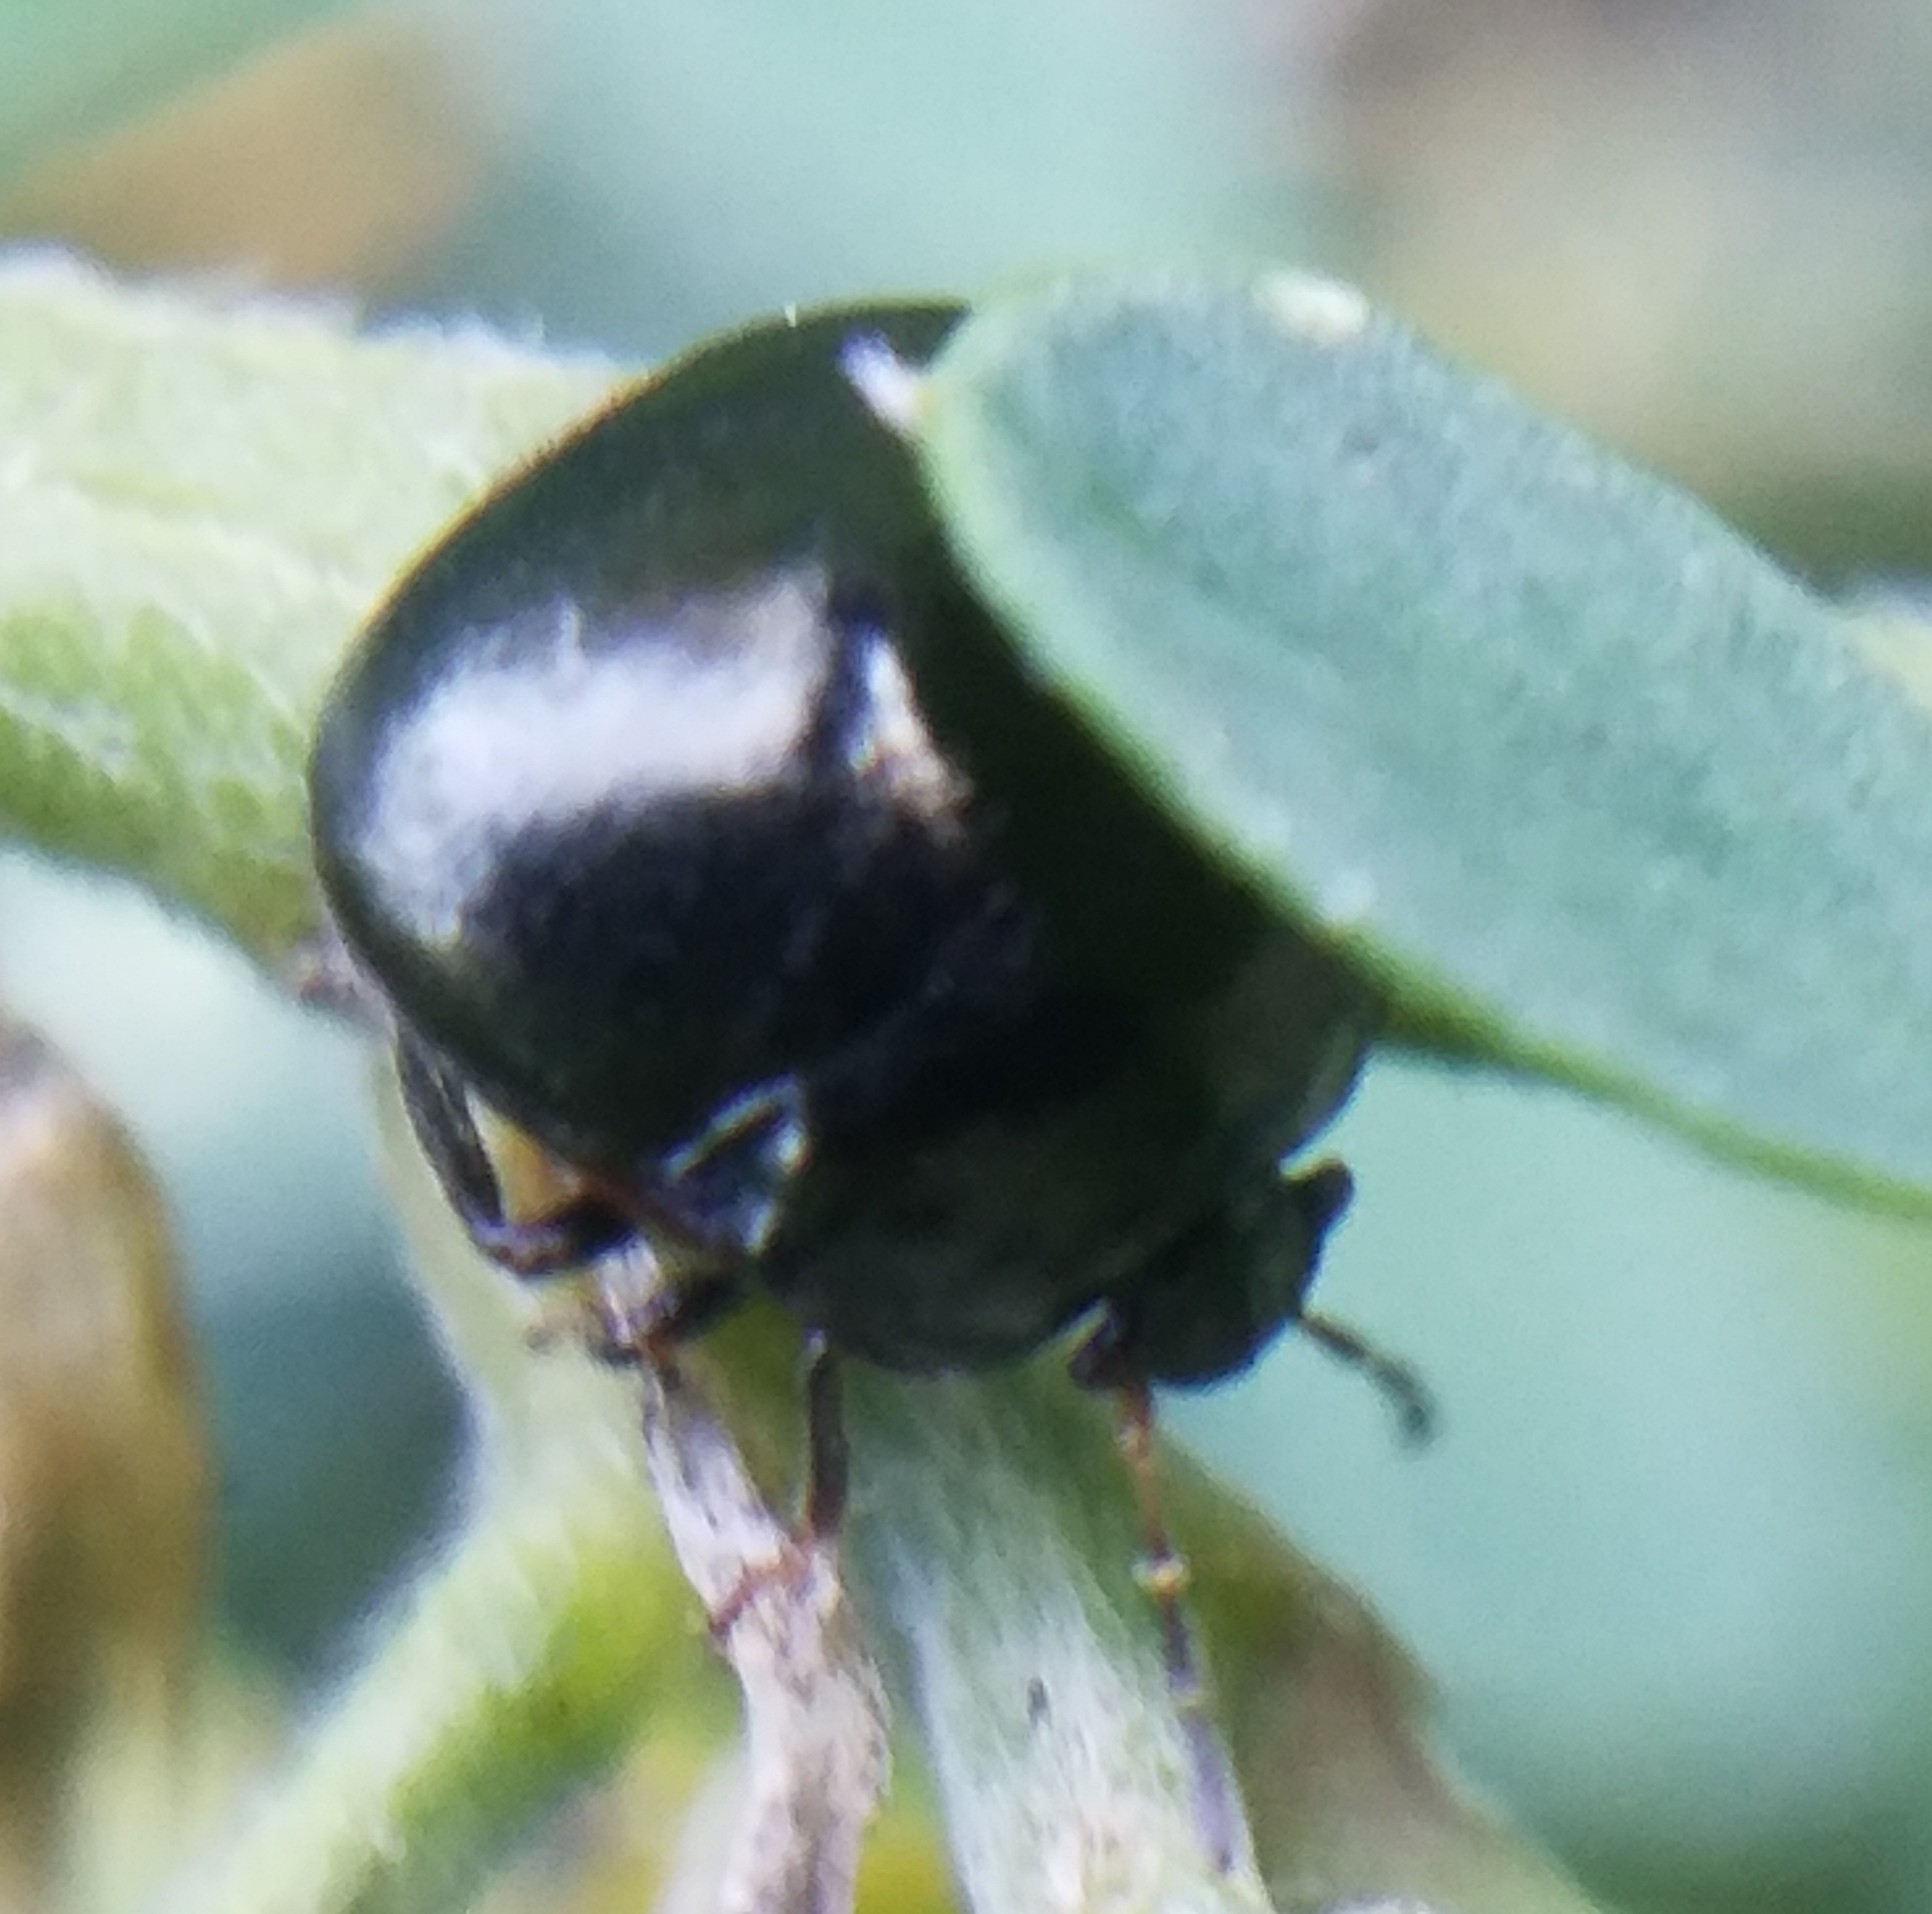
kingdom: Animalia
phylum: Arthropoda
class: Insecta
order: Hemiptera
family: Plataspidae
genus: Coptosoma
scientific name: Coptosoma scutellatum
